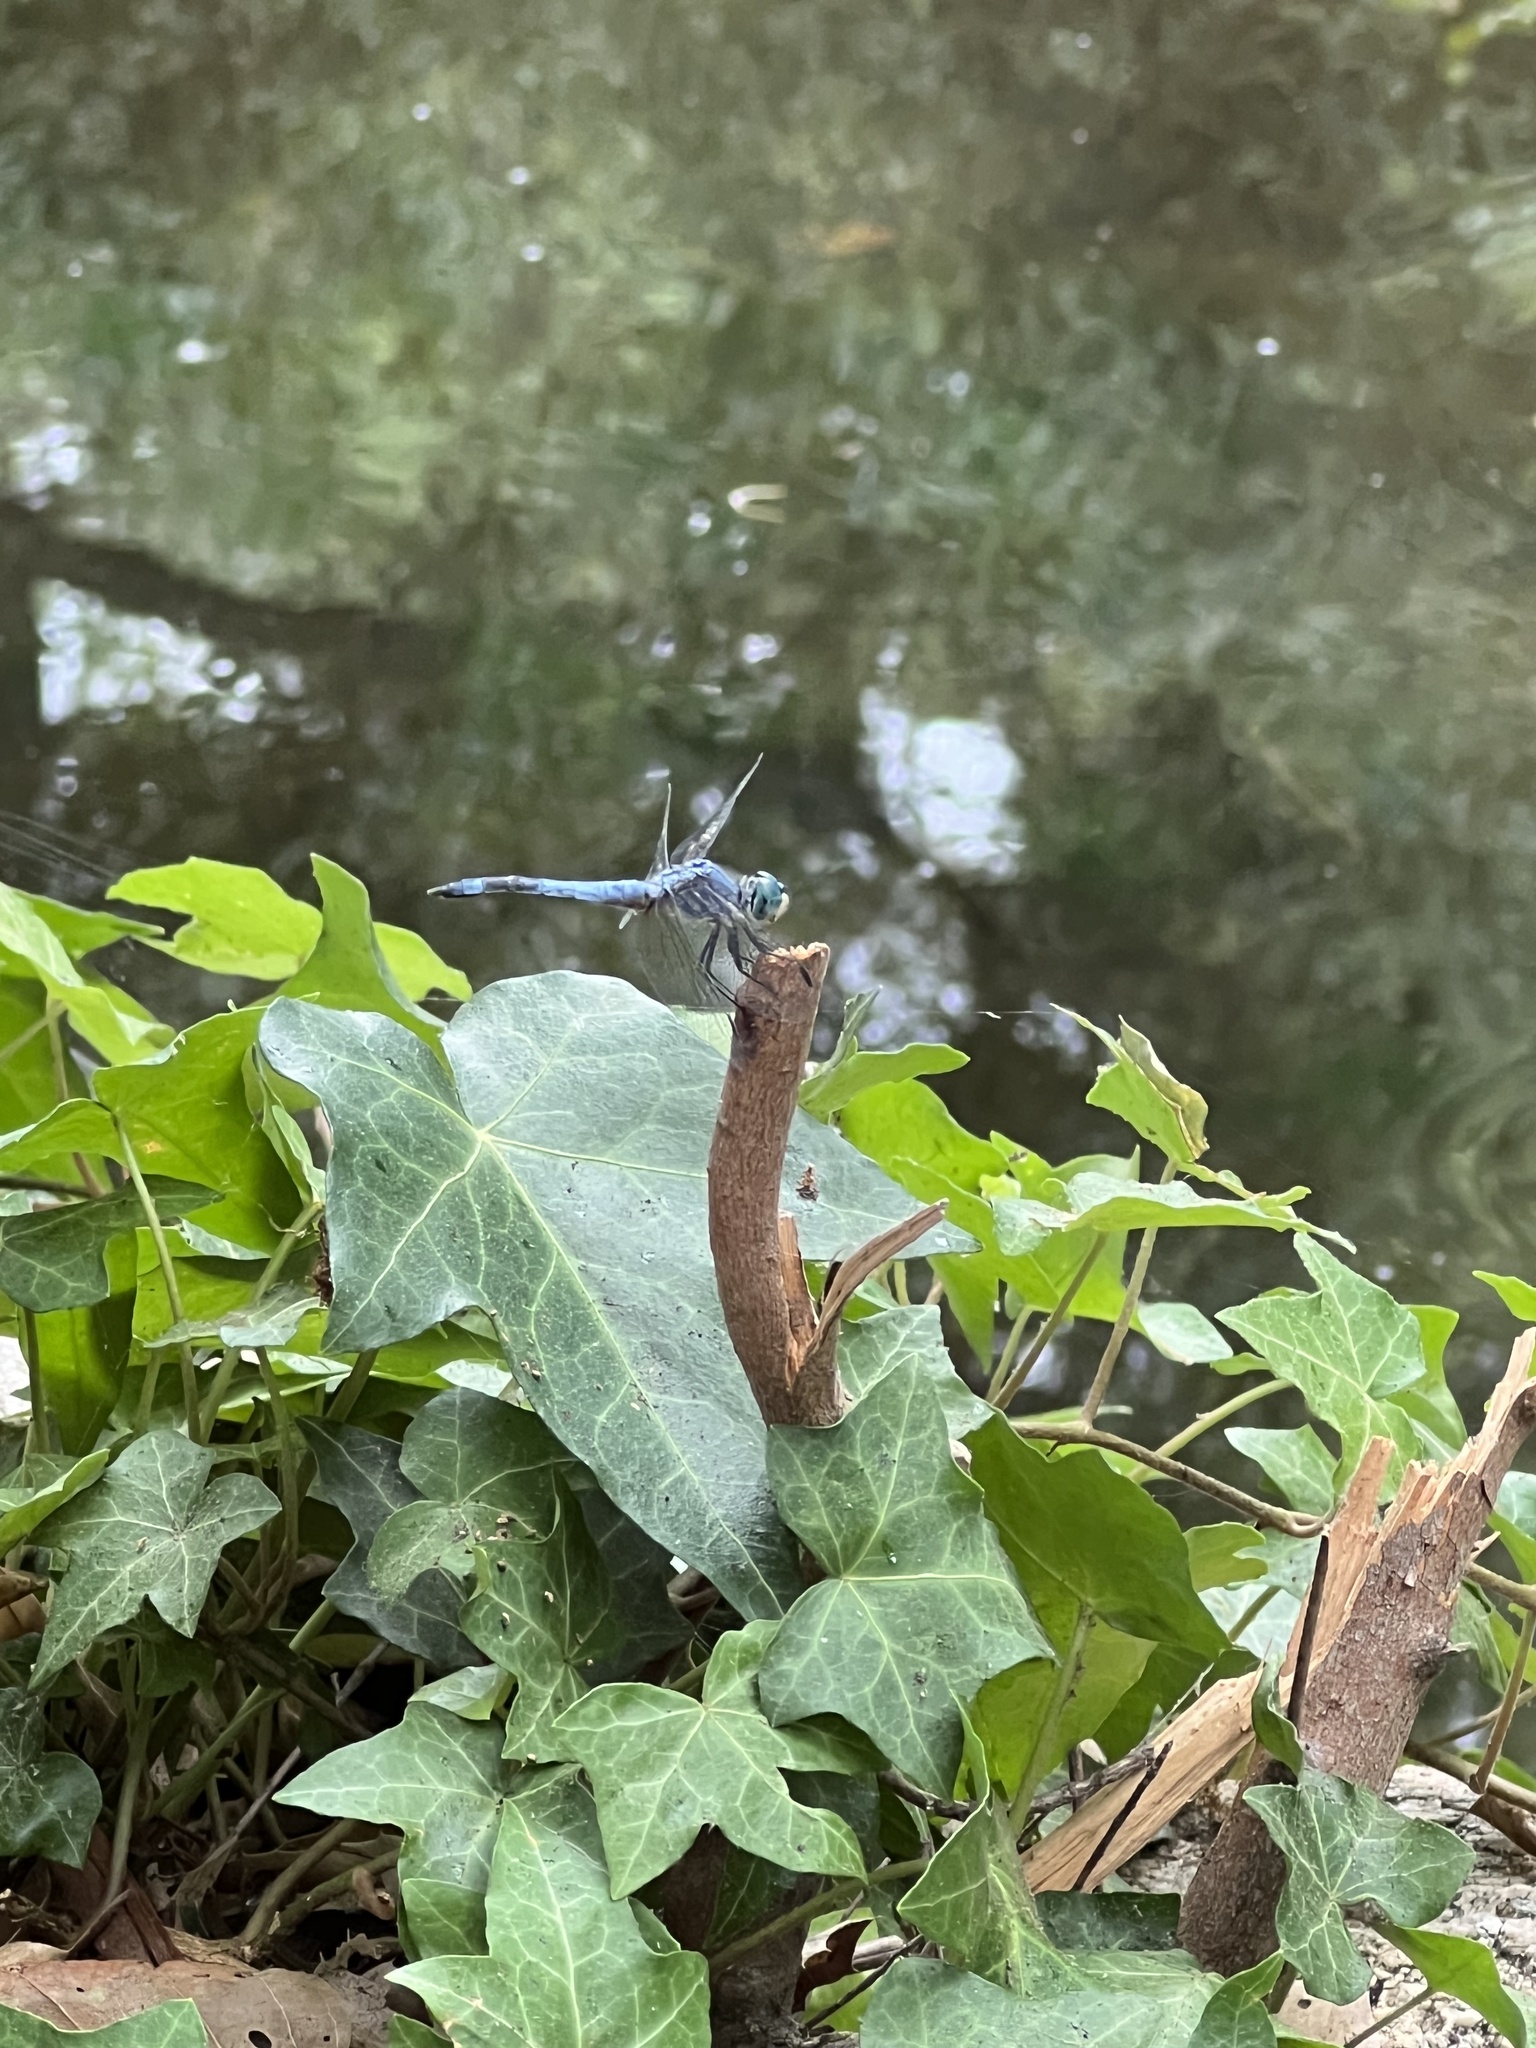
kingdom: Animalia
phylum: Arthropoda
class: Insecta
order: Odonata
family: Libellulidae
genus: Pachydiplax
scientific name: Pachydiplax longipennis
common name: Blue dasher
